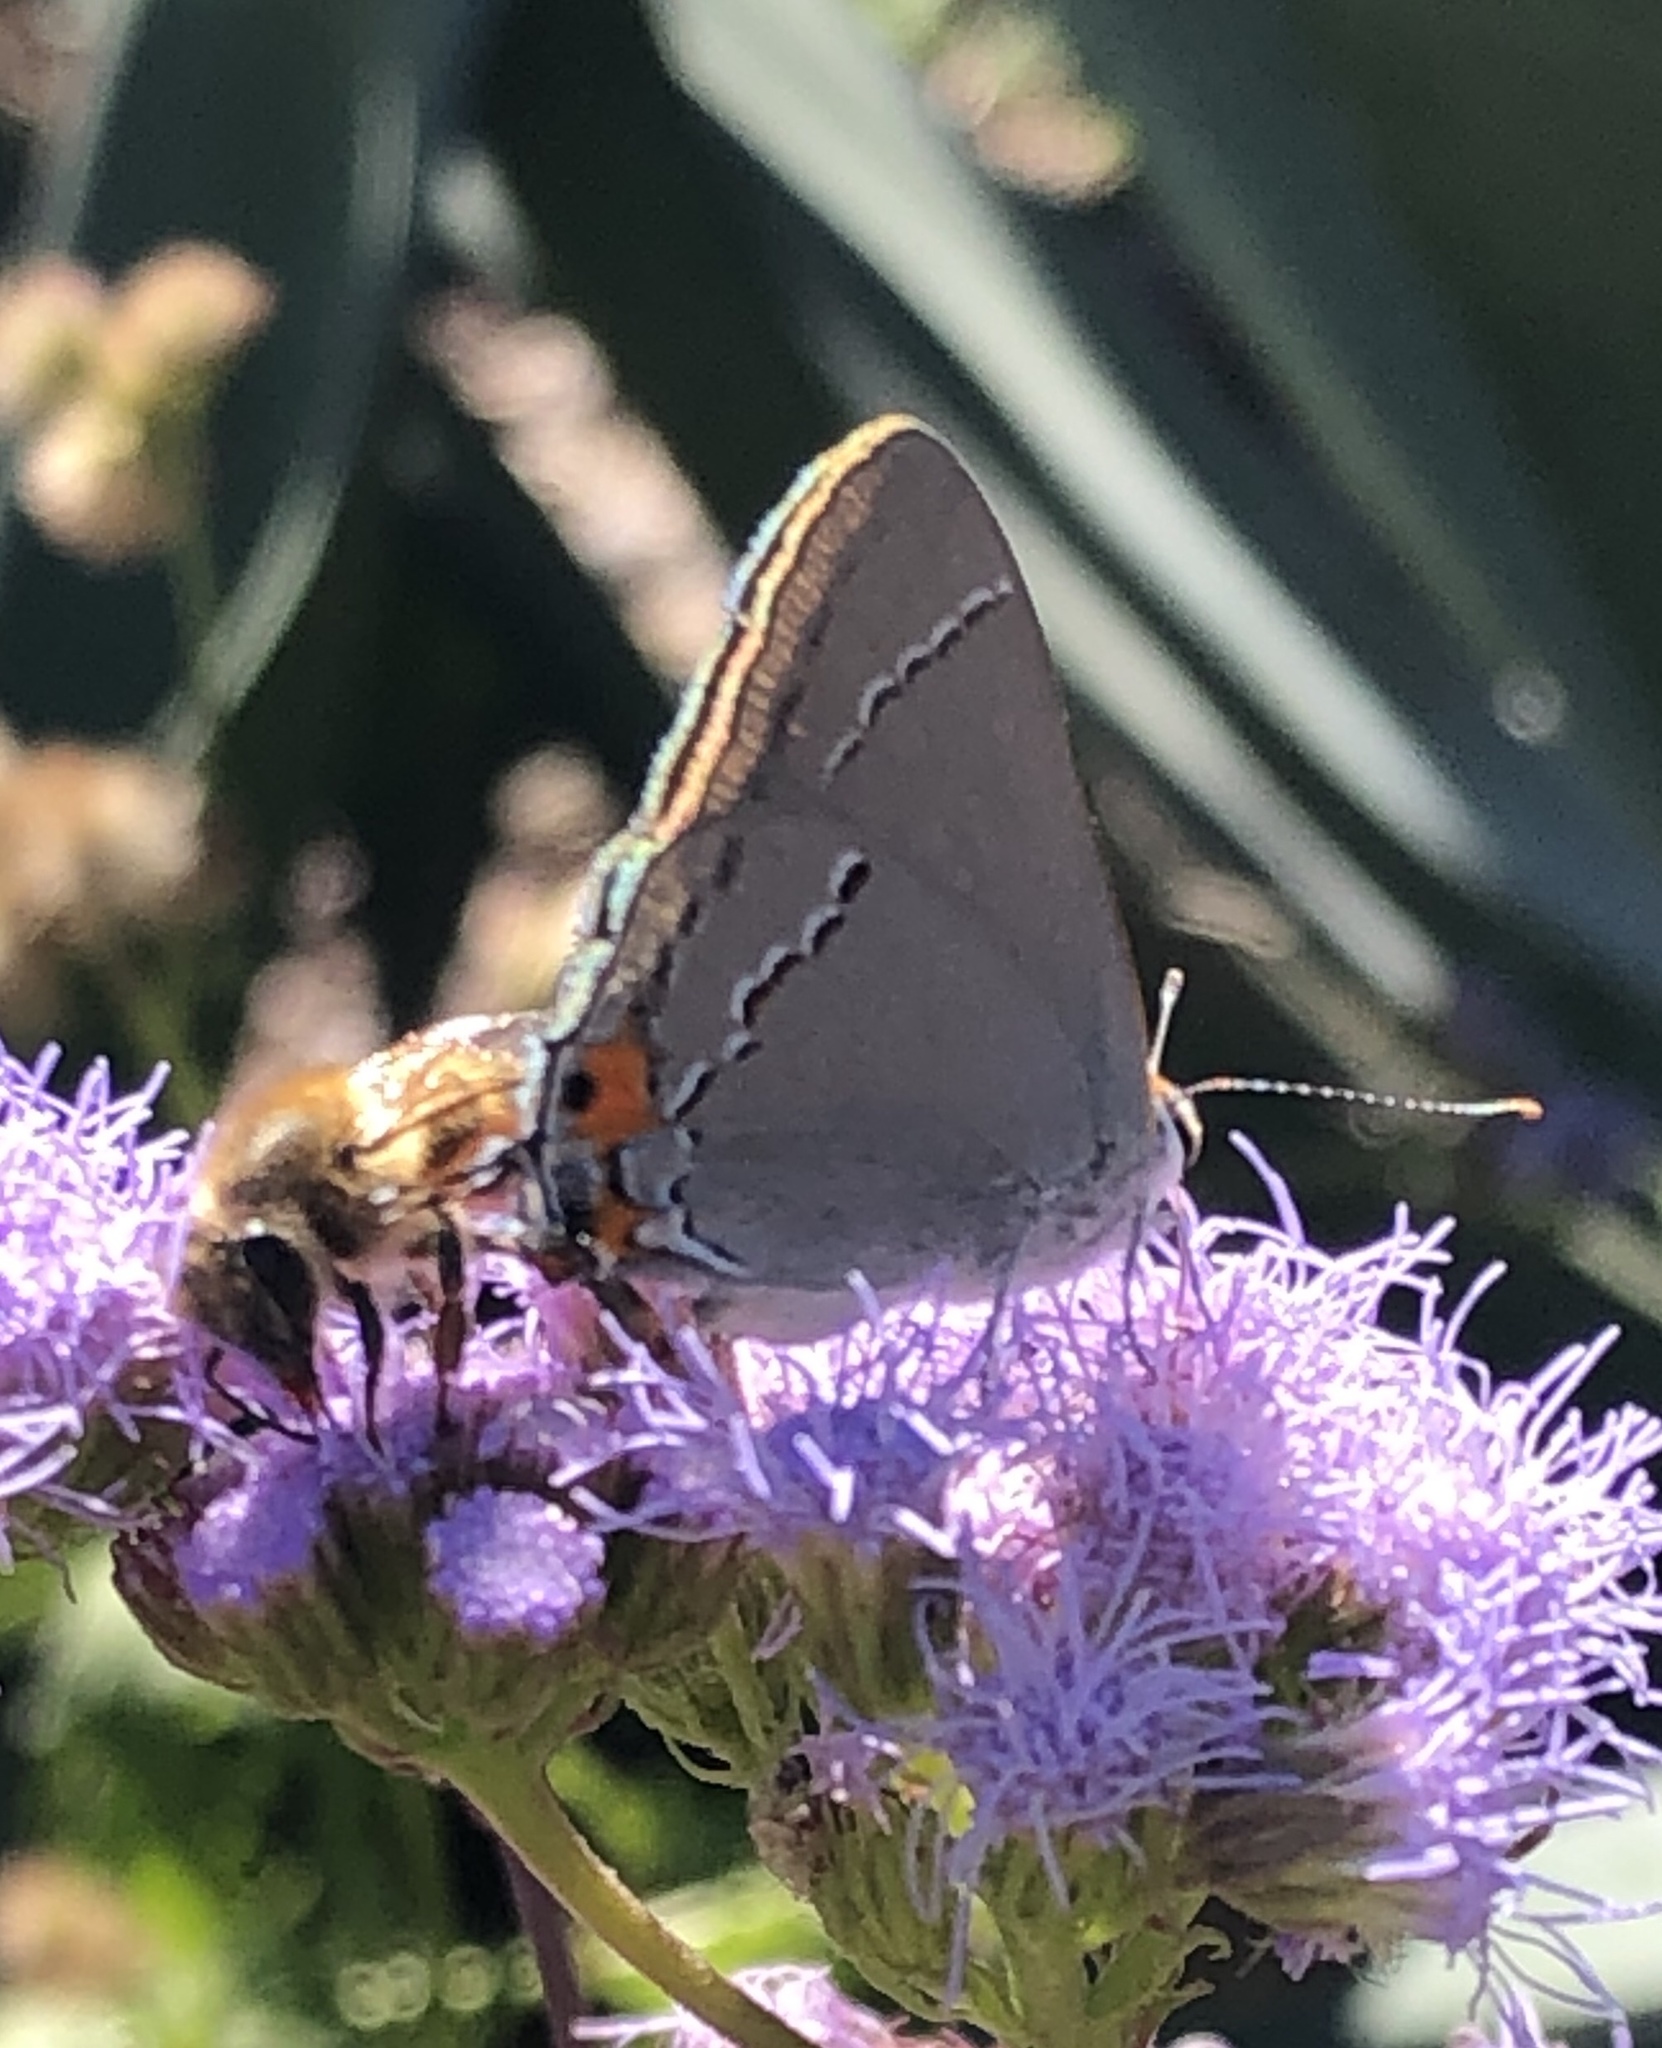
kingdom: Animalia
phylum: Arthropoda
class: Insecta
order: Lepidoptera
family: Lycaenidae
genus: Strymon
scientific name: Strymon melinus
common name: Gray hairstreak
